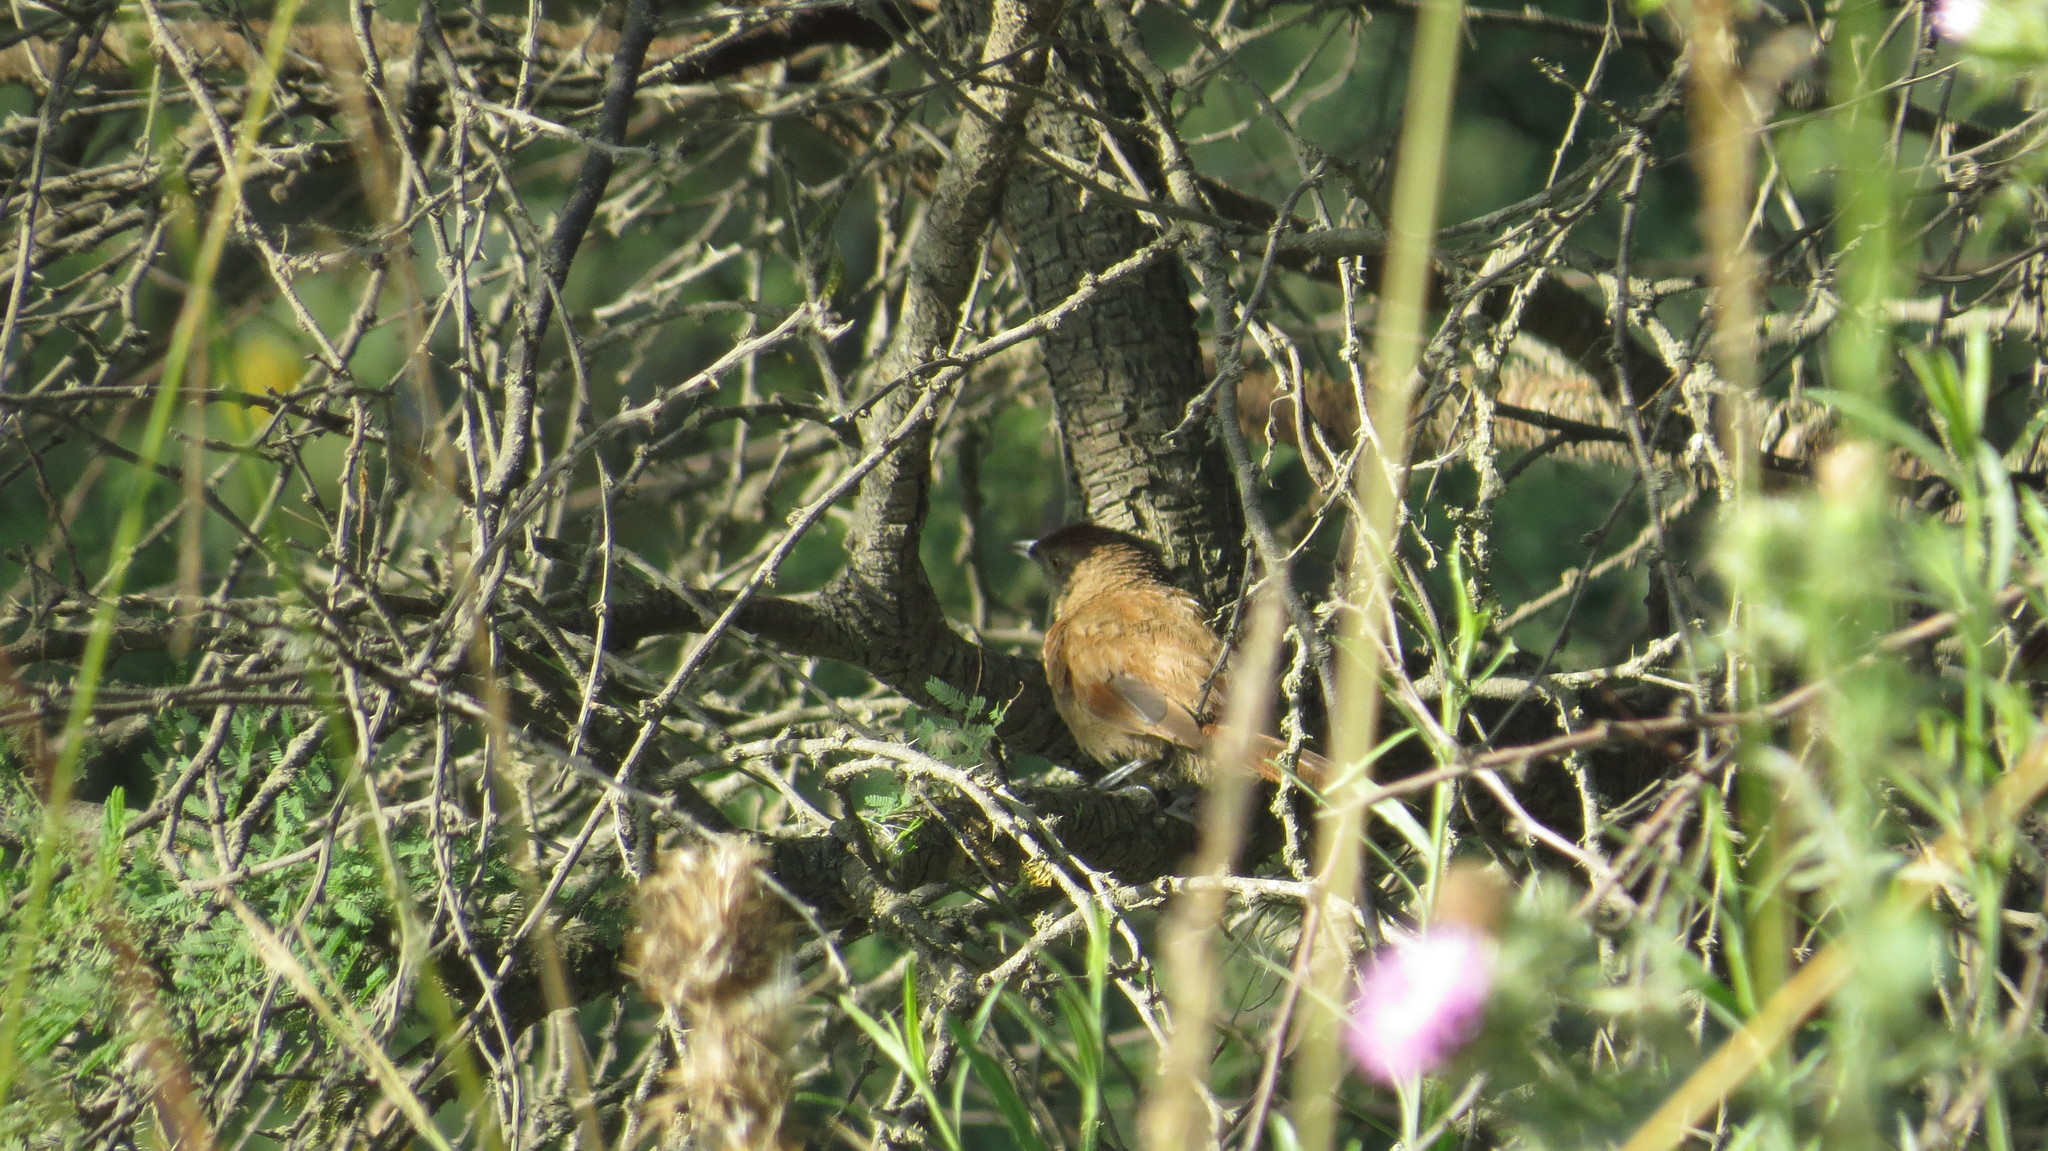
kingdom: Animalia
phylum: Chordata
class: Aves
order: Passeriformes
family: Furnariidae
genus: Phacellodomus
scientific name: Phacellodomus striaticollis
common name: Freckle-breasted thornbird
